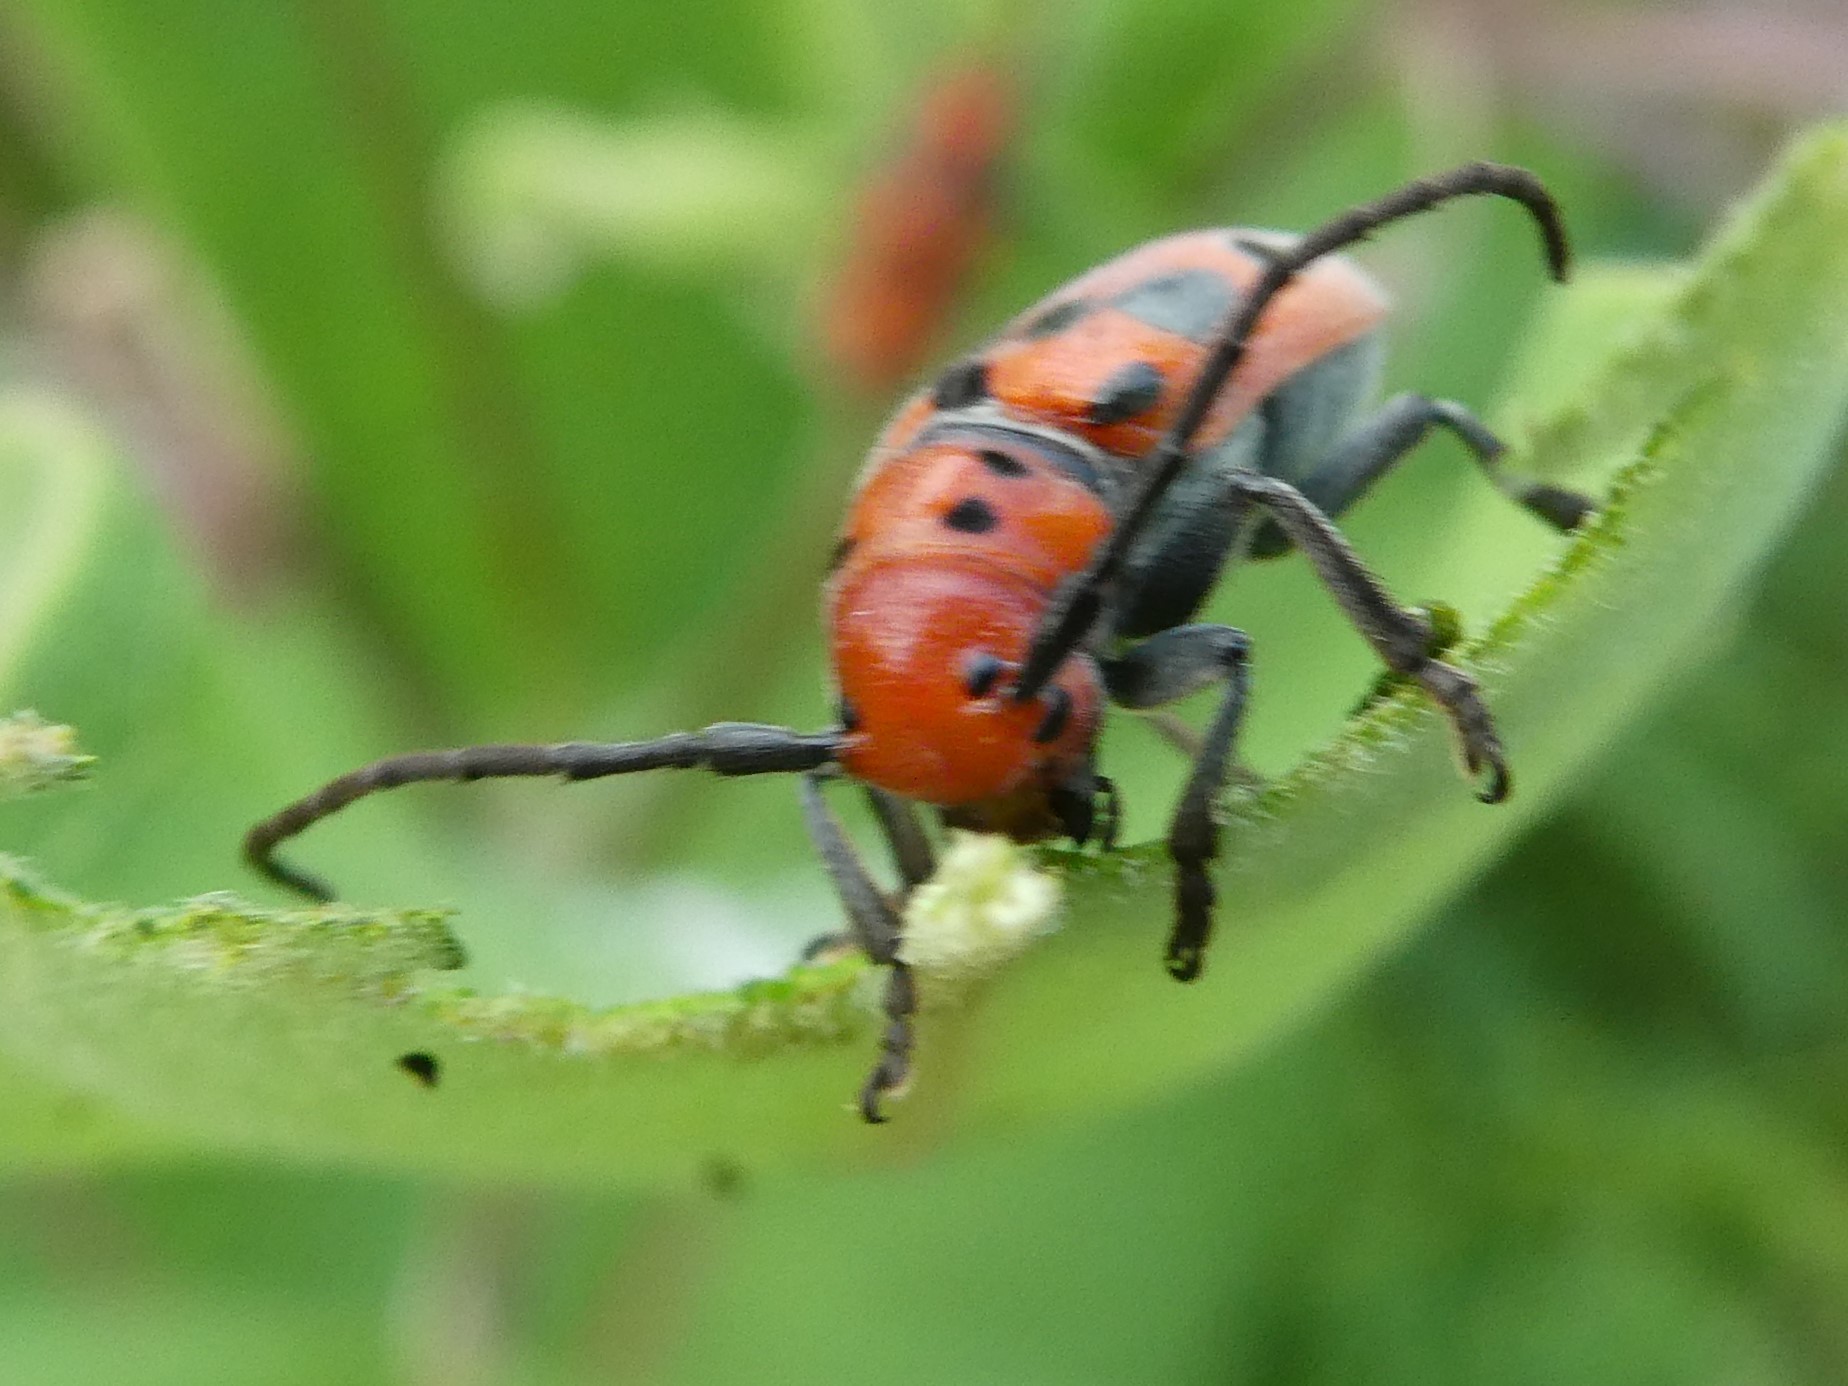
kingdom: Animalia
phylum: Arthropoda
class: Insecta
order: Coleoptera
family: Cerambycidae
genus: Tetraopes
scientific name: Tetraopes tetrophthalmus
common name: Red milkweed beetle
